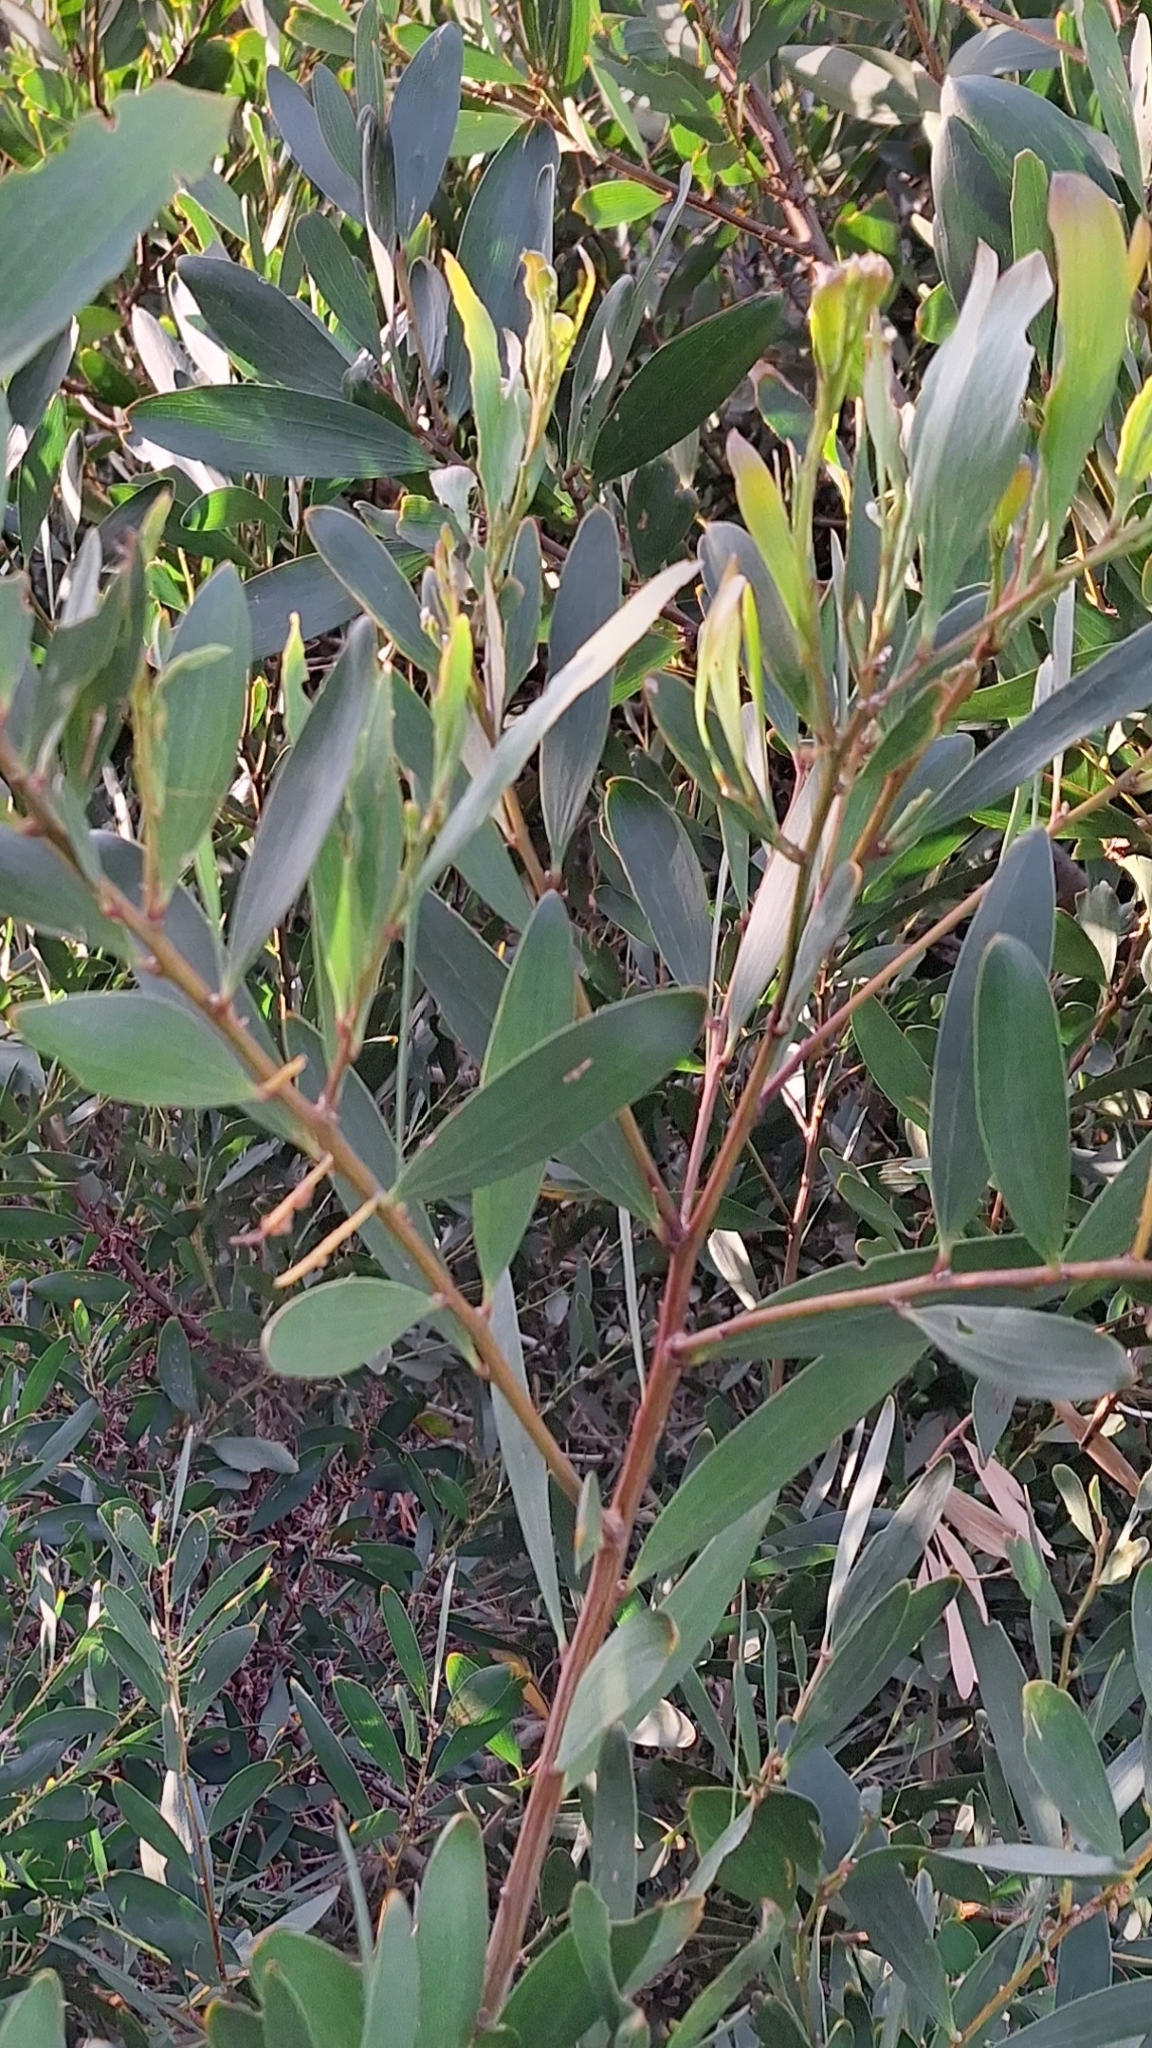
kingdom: Plantae
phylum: Tracheophyta
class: Magnoliopsida
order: Fabales
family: Fabaceae
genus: Acacia
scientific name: Acacia longifolia
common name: Sydney golden wattle
